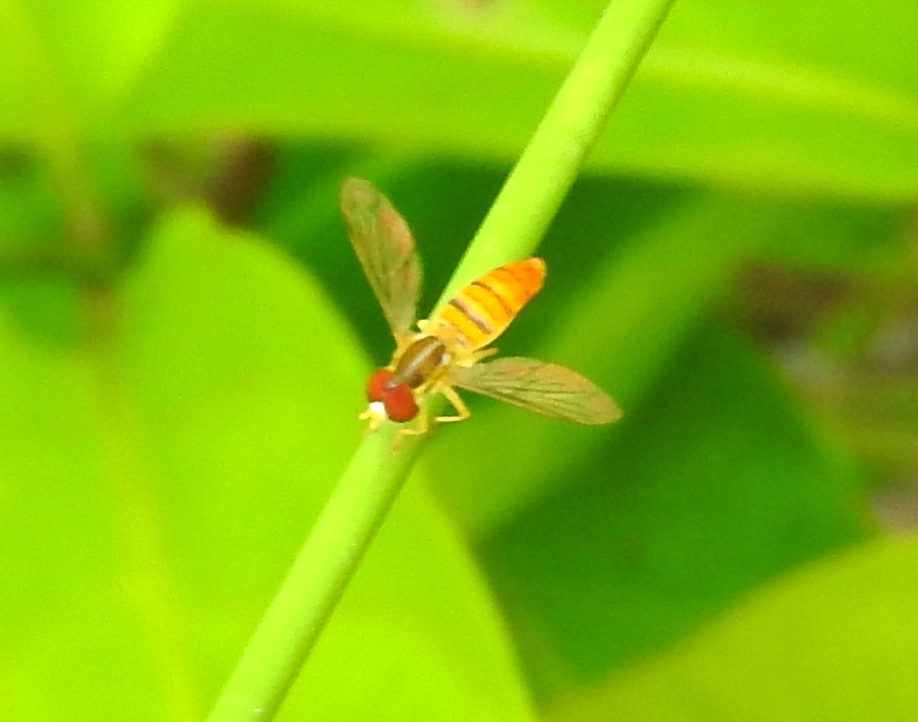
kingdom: Animalia
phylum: Arthropoda
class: Insecta
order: Diptera
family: Syrphidae
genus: Toxomerus
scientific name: Toxomerus
